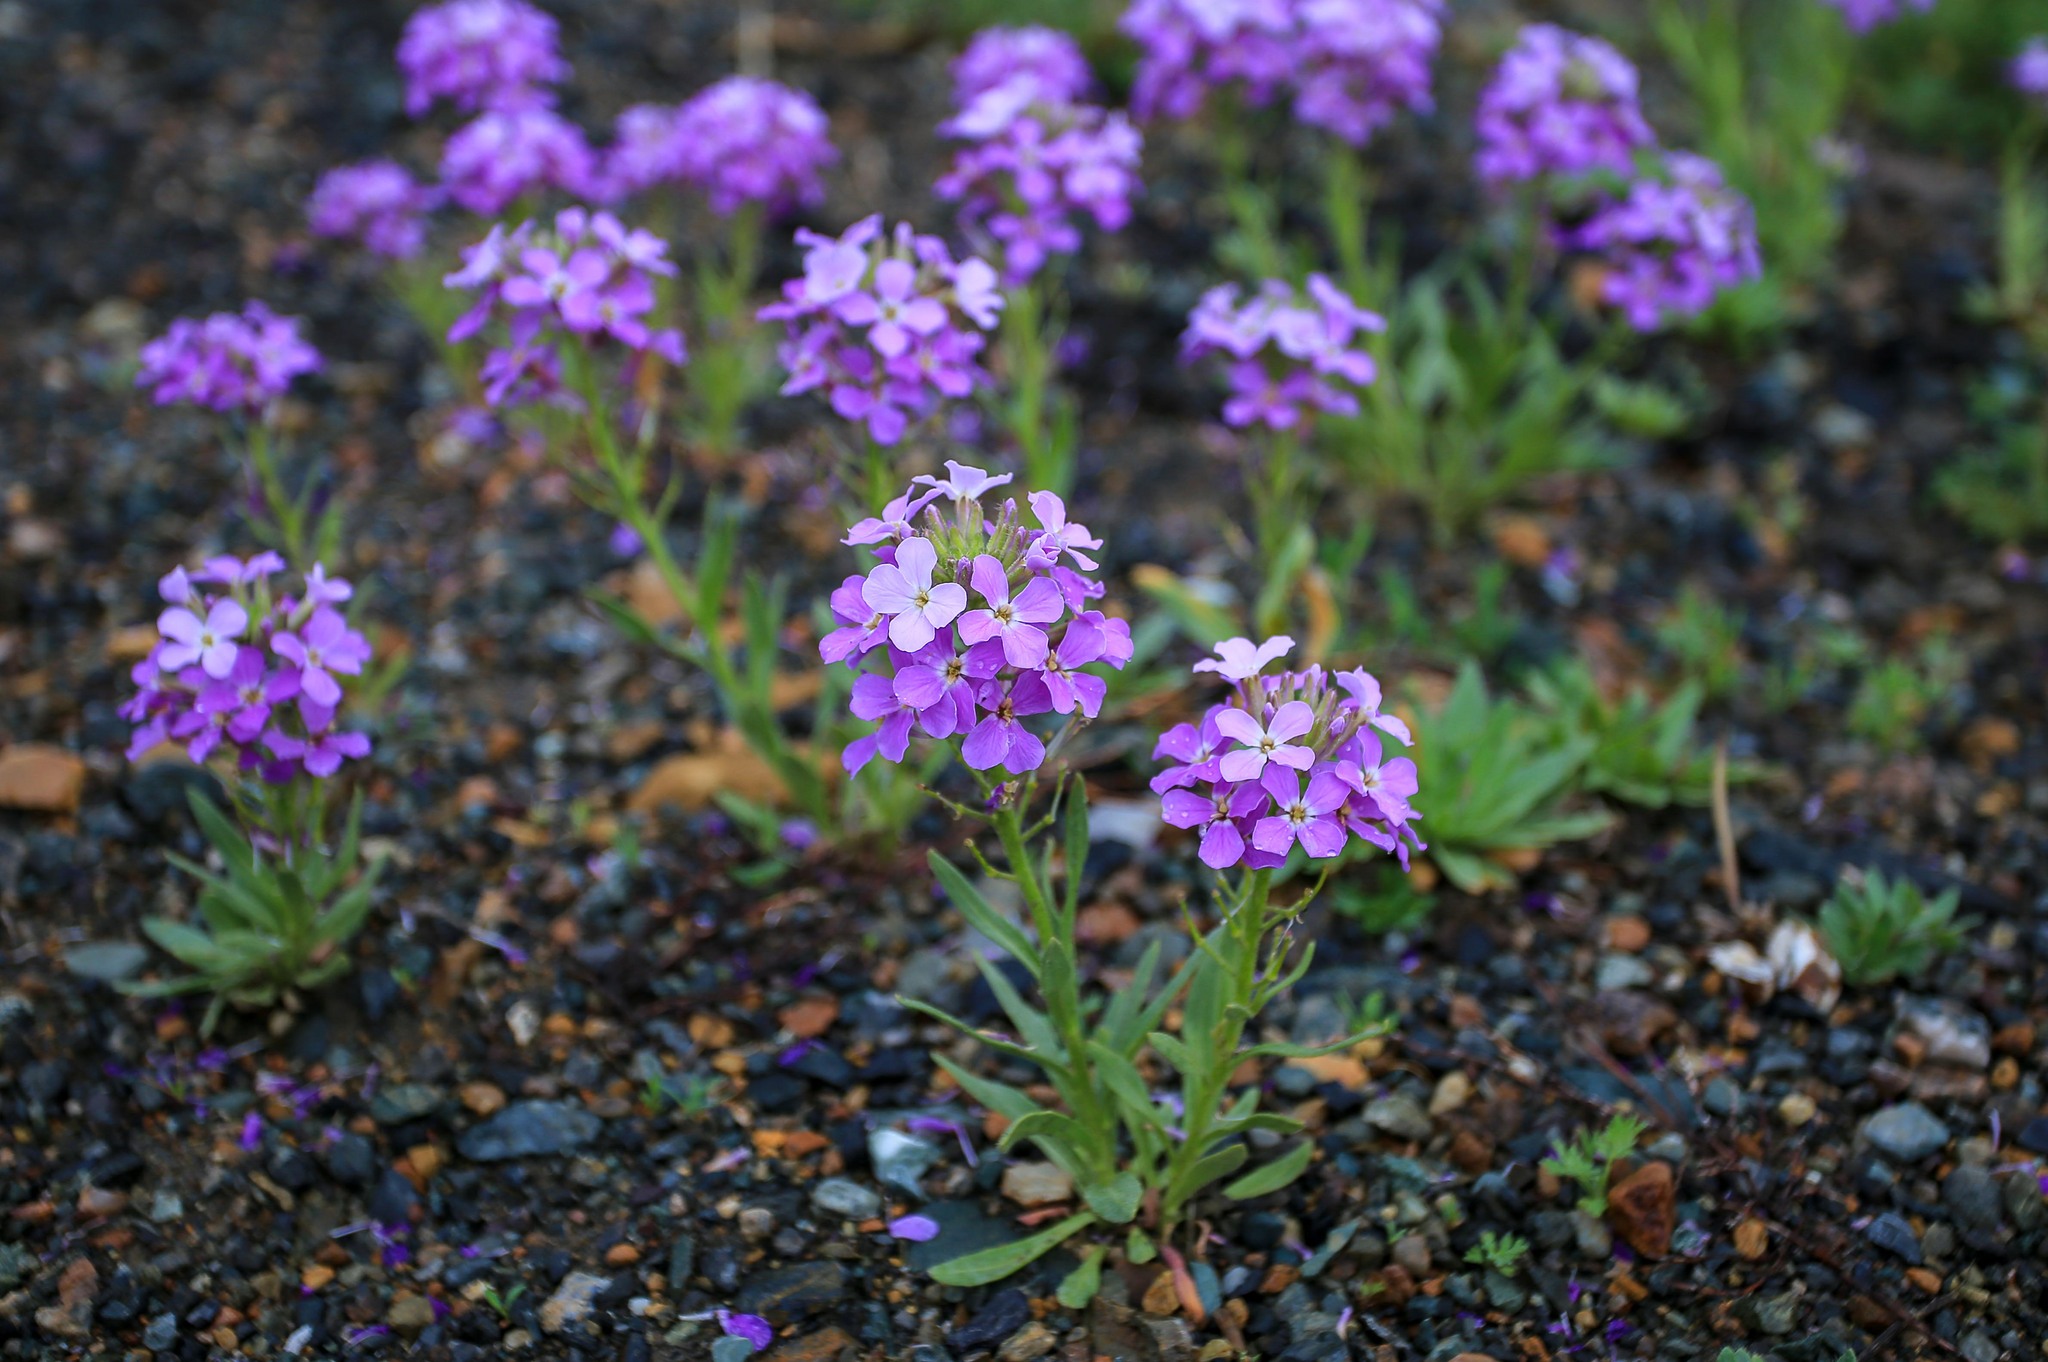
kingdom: Plantae
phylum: Tracheophyta
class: Magnoliopsida
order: Brassicales
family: Brassicaceae
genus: Clausia
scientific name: Clausia aprica
